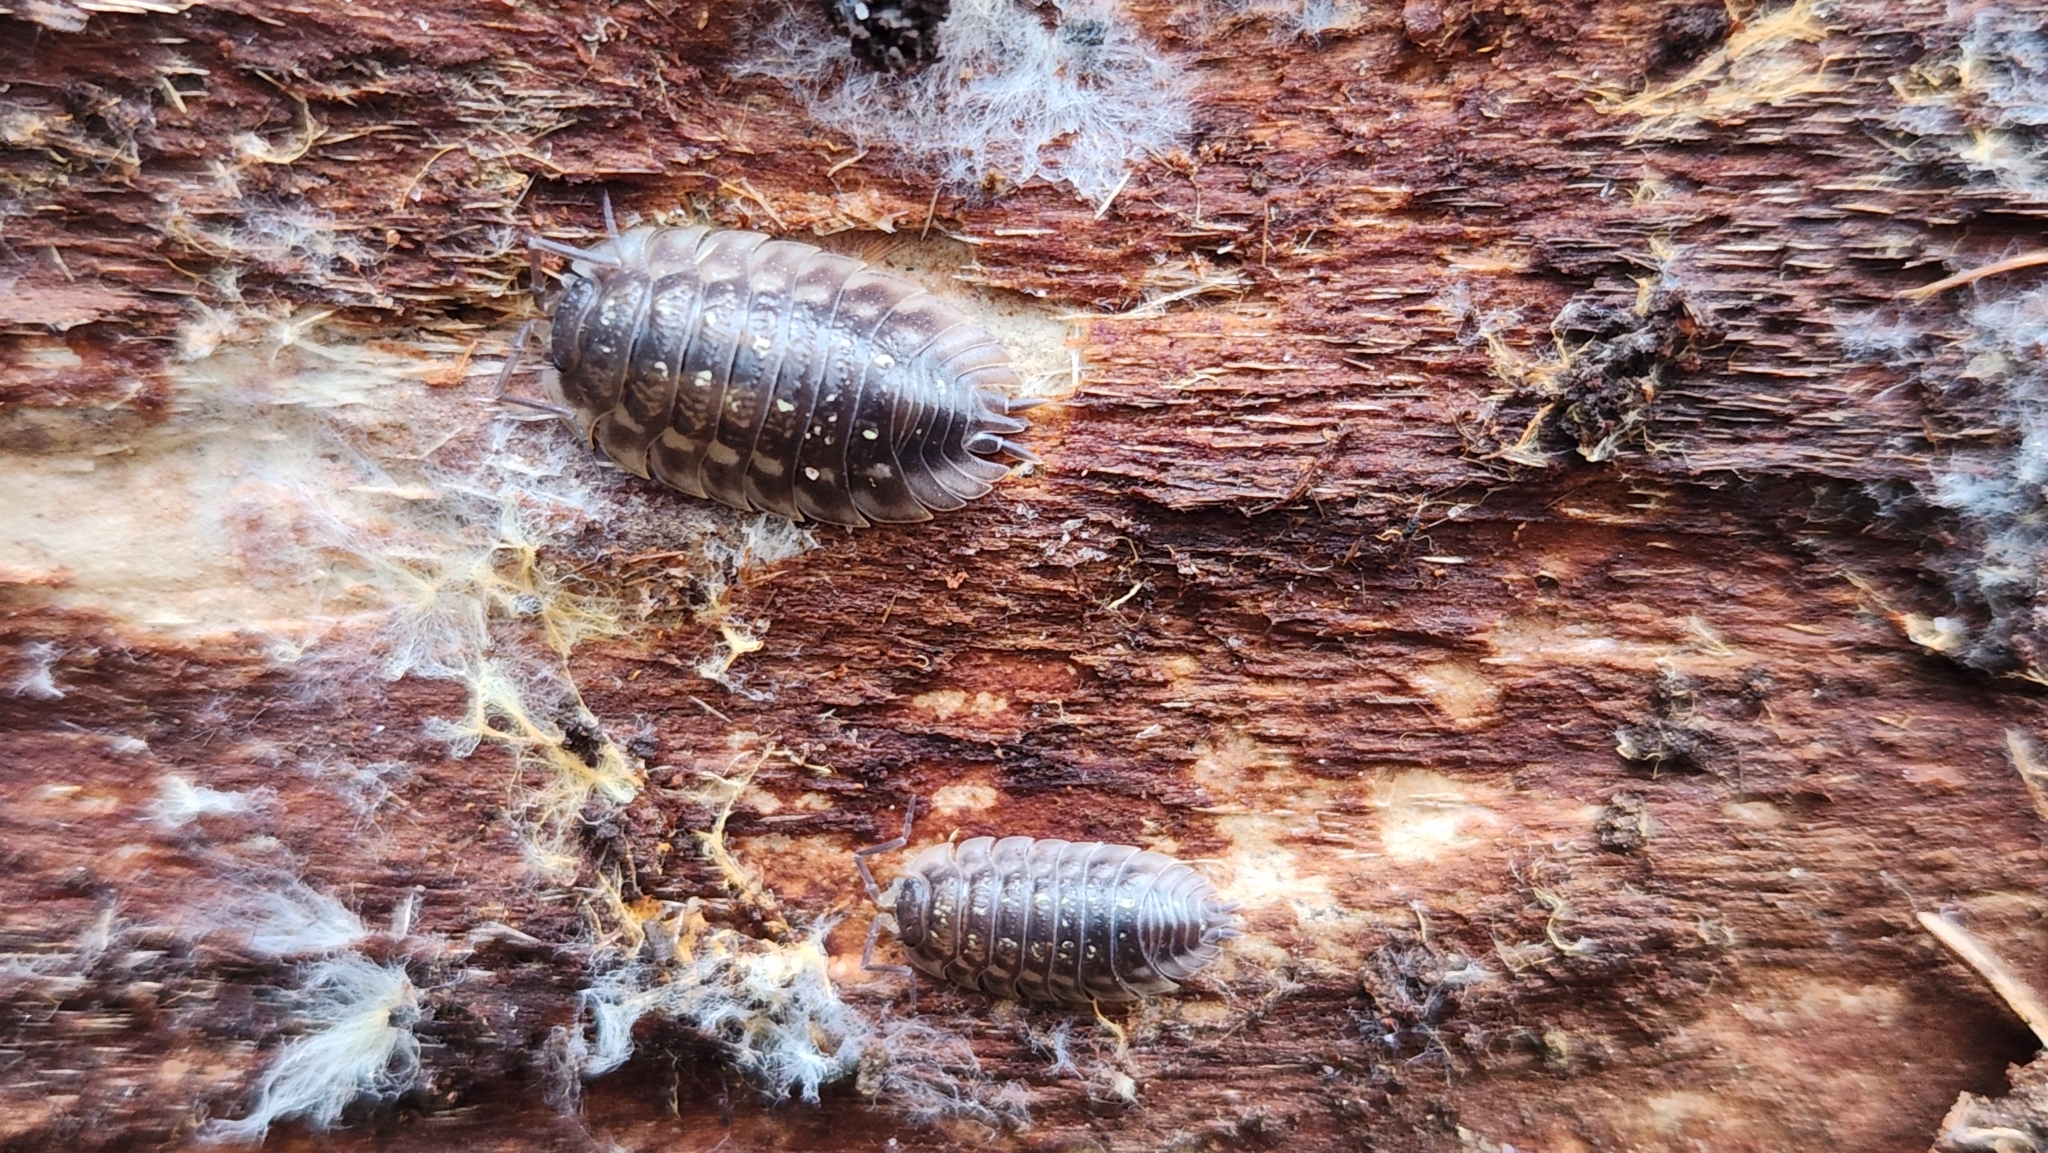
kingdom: Animalia
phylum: Arthropoda
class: Malacostraca
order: Isopoda
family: Oniscidae
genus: Oniscus
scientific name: Oniscus asellus
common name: Common shiny woodlouse
